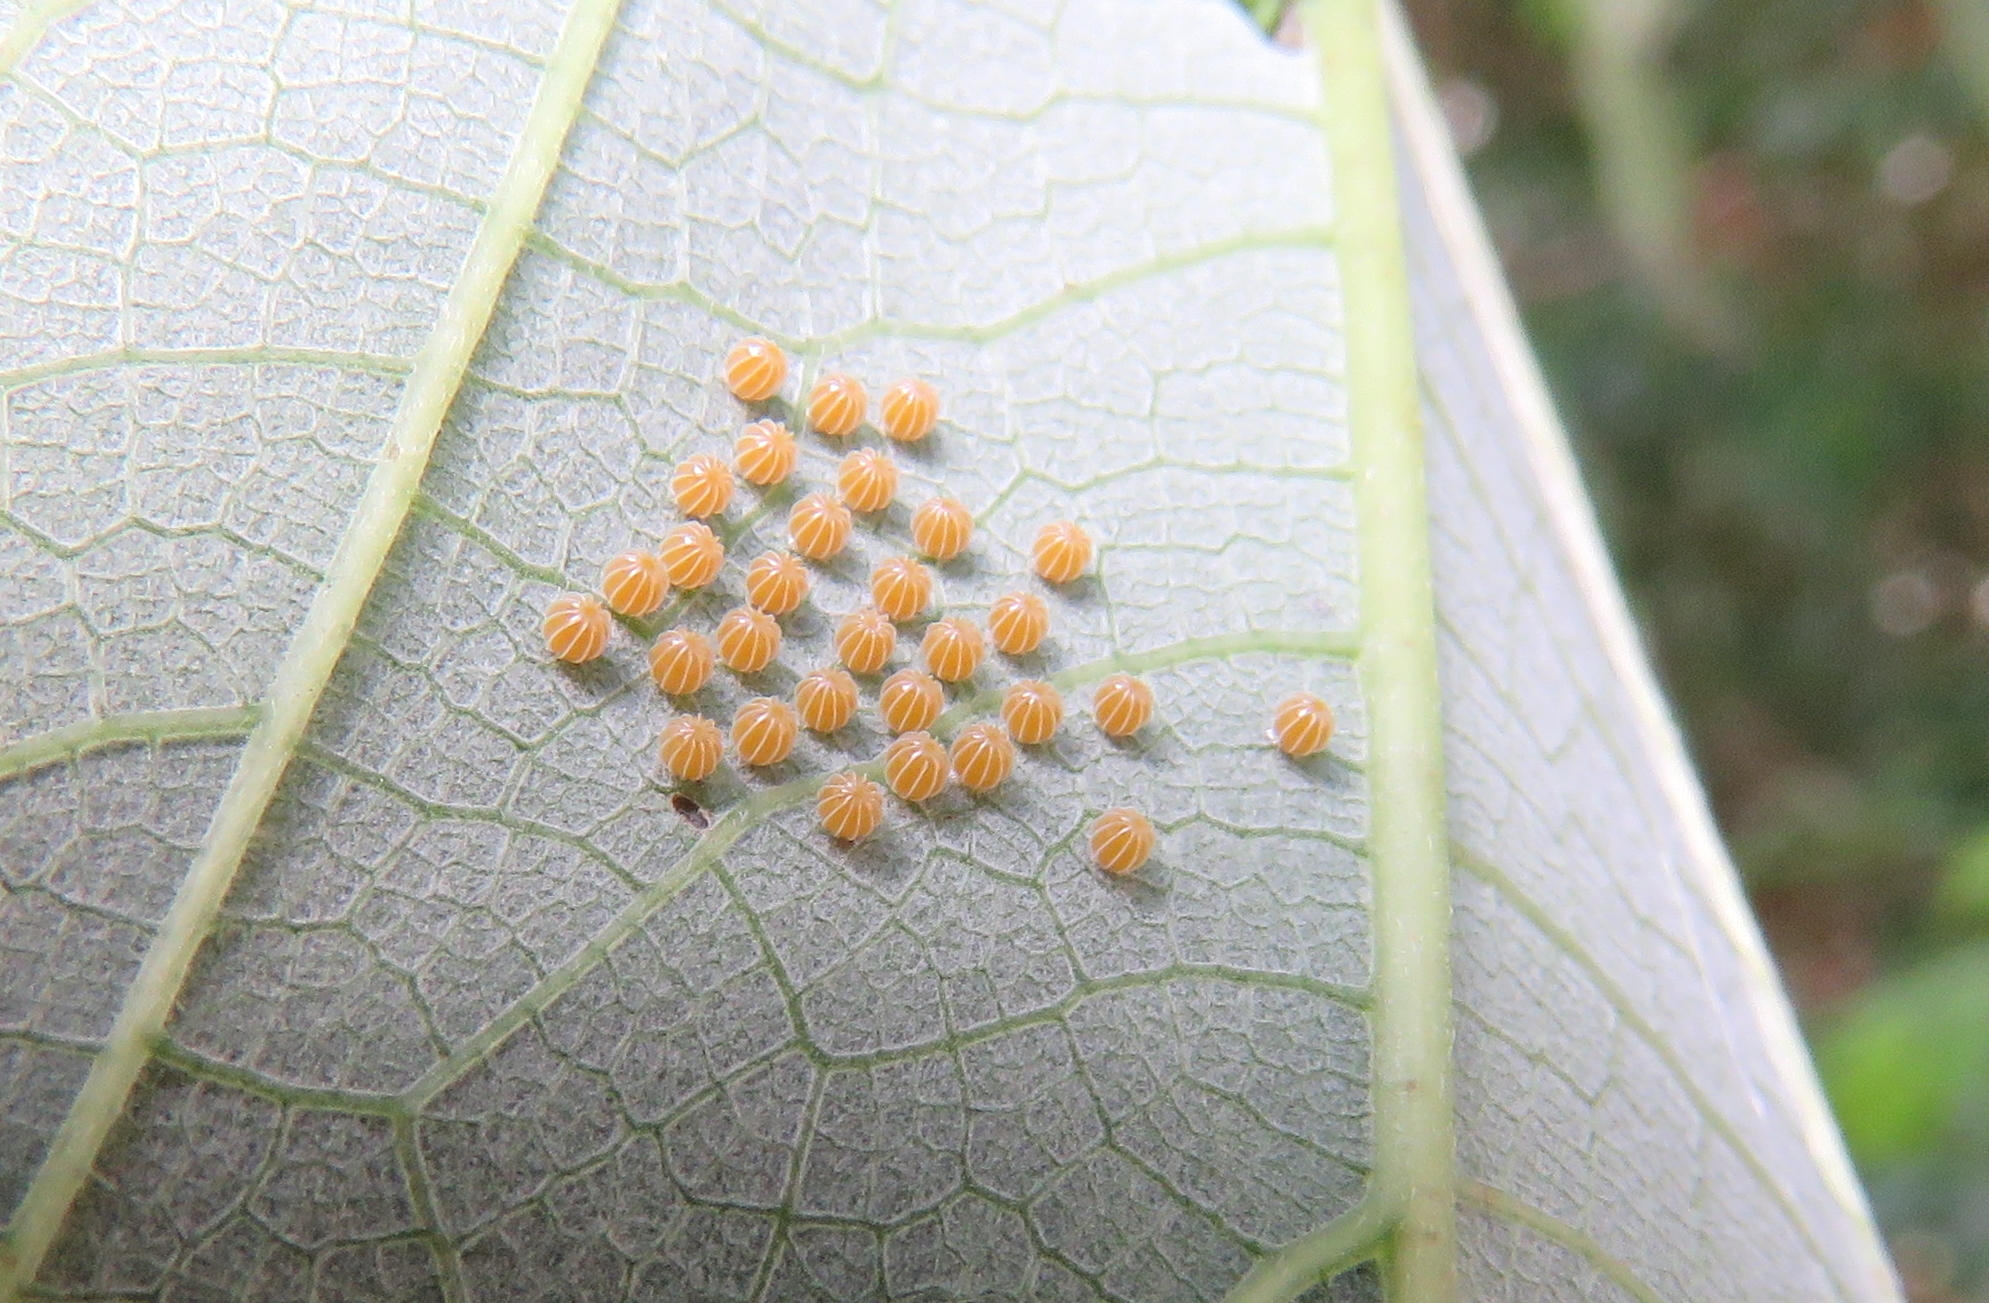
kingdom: Animalia
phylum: Arthropoda
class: Insecta
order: Lepidoptera
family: Nymphalidae
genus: Mynes
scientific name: Mynes geoffroyi
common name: Jezebel nymph
